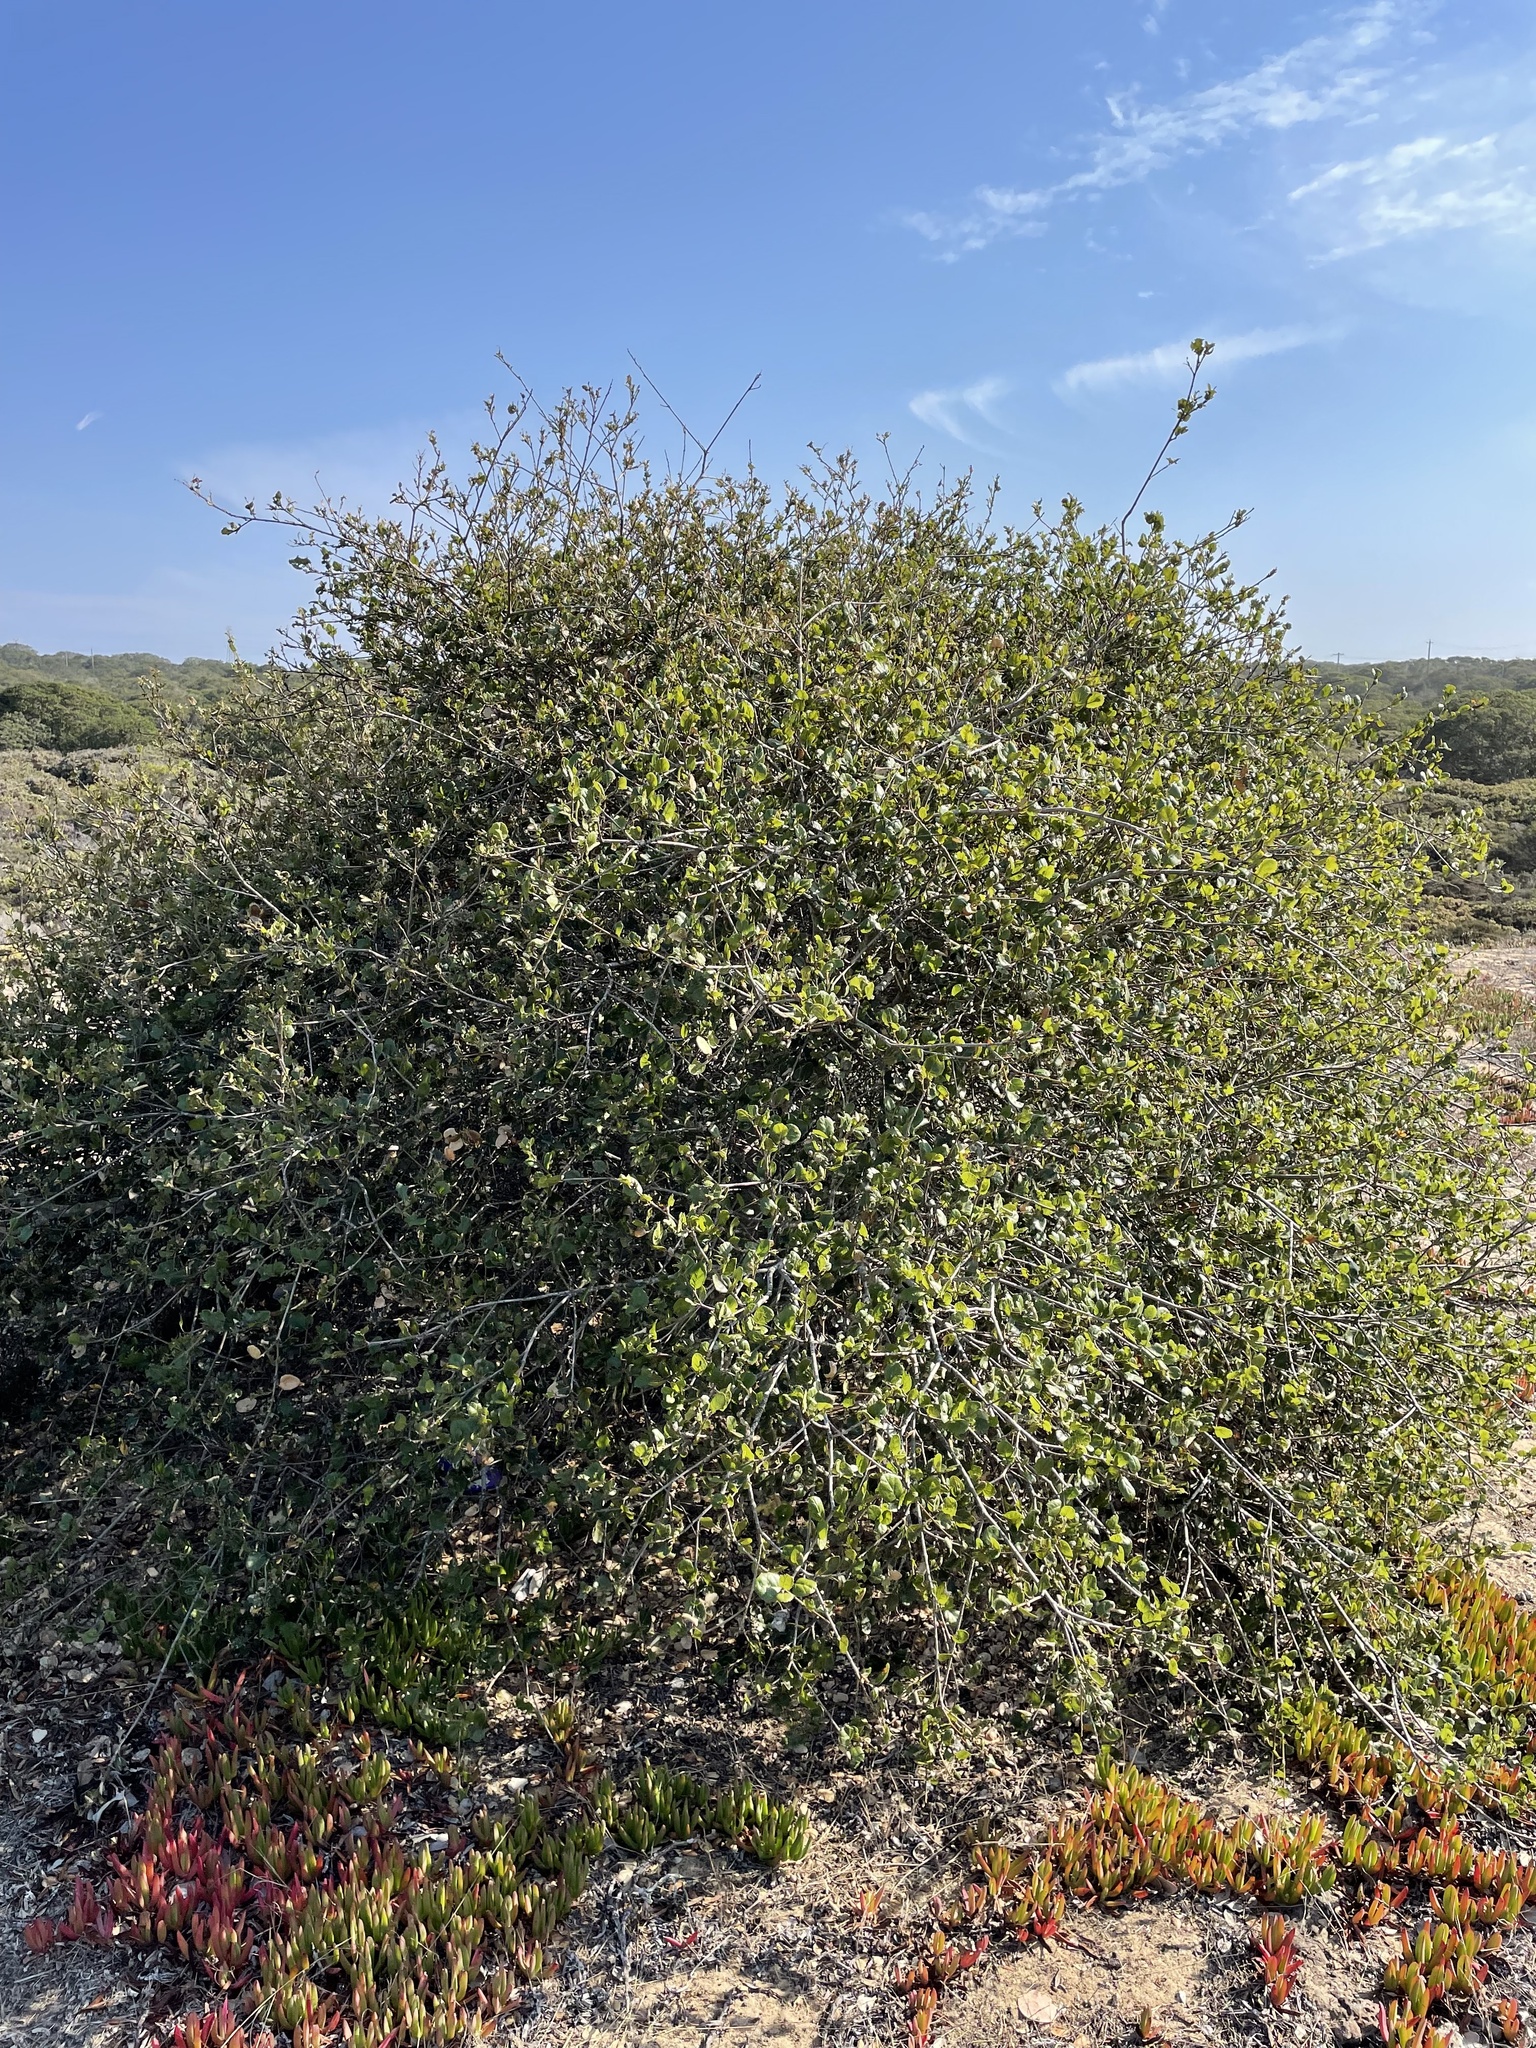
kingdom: Plantae
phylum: Tracheophyta
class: Magnoliopsida
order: Fagales
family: Fagaceae
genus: Quercus
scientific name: Quercus agrifolia
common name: California live oak
